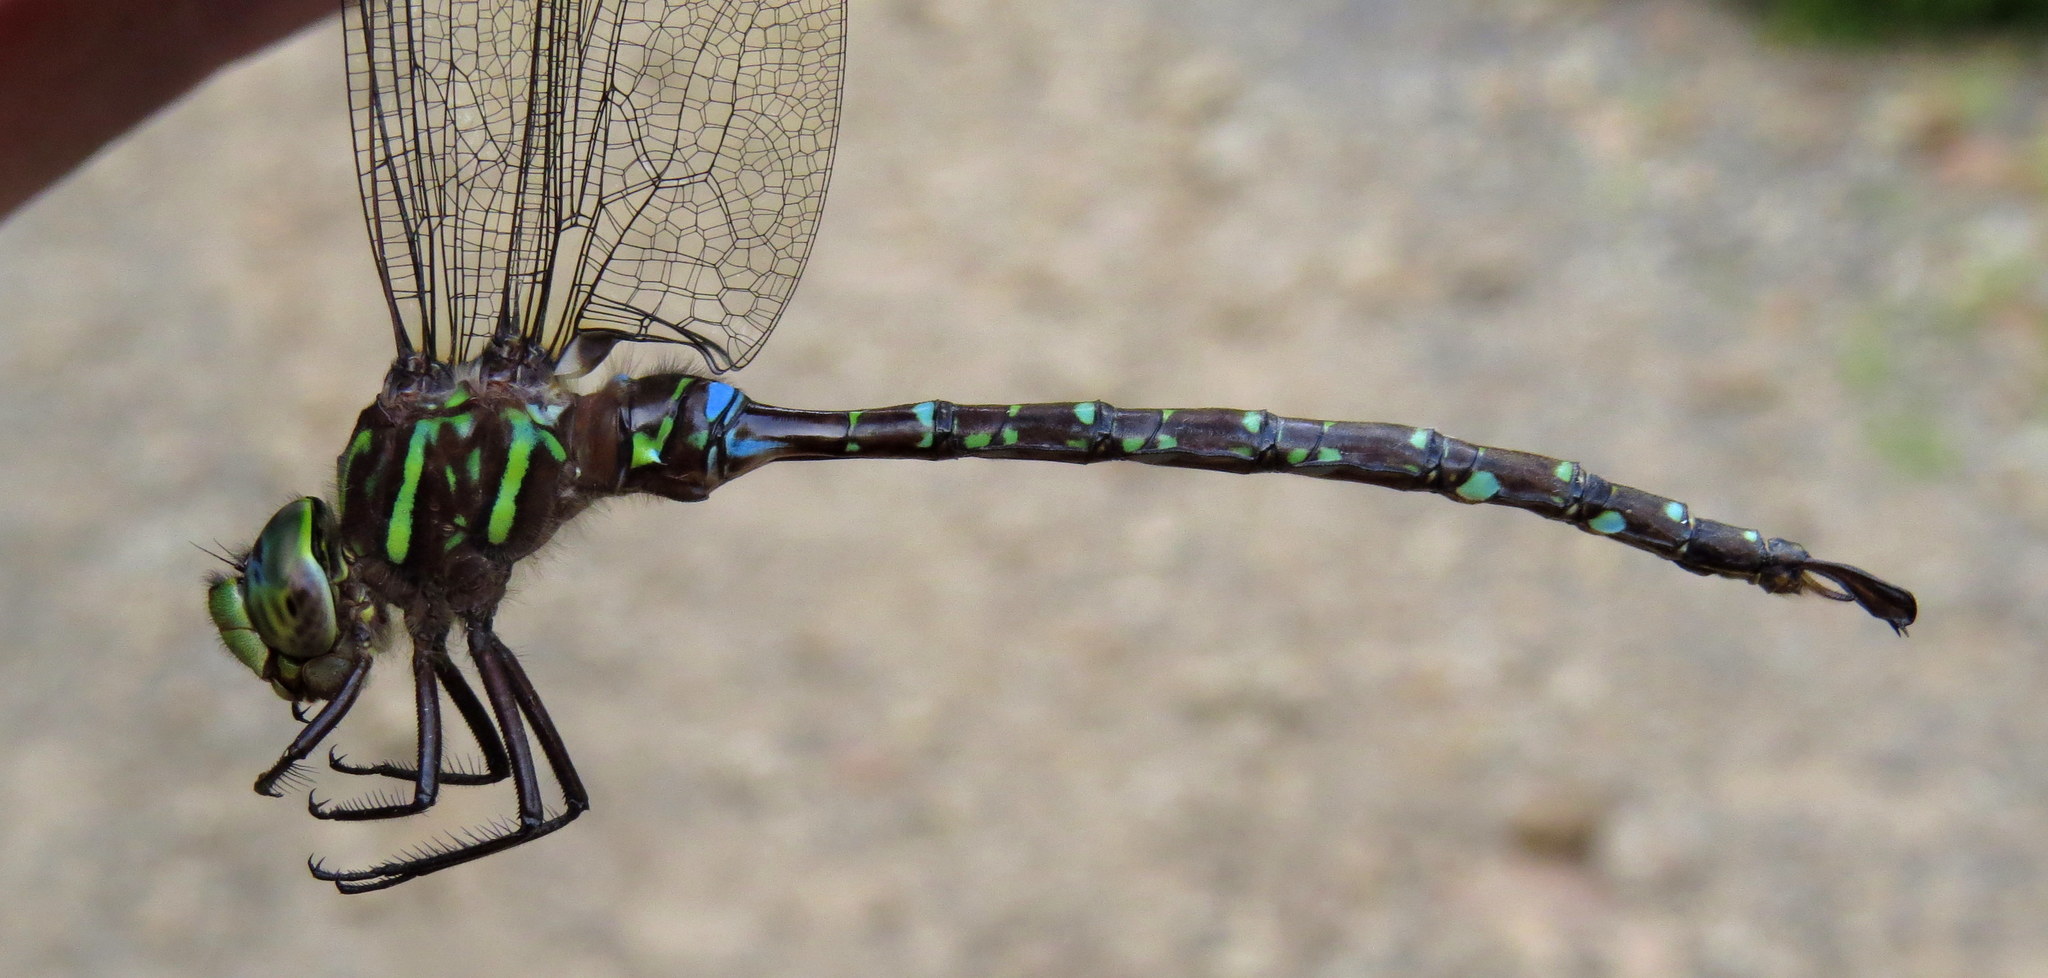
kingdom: Animalia
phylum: Arthropoda
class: Insecta
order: Odonata
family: Aeshnidae
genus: Aeshna
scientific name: Aeshna umbrosa
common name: Shadow darner
